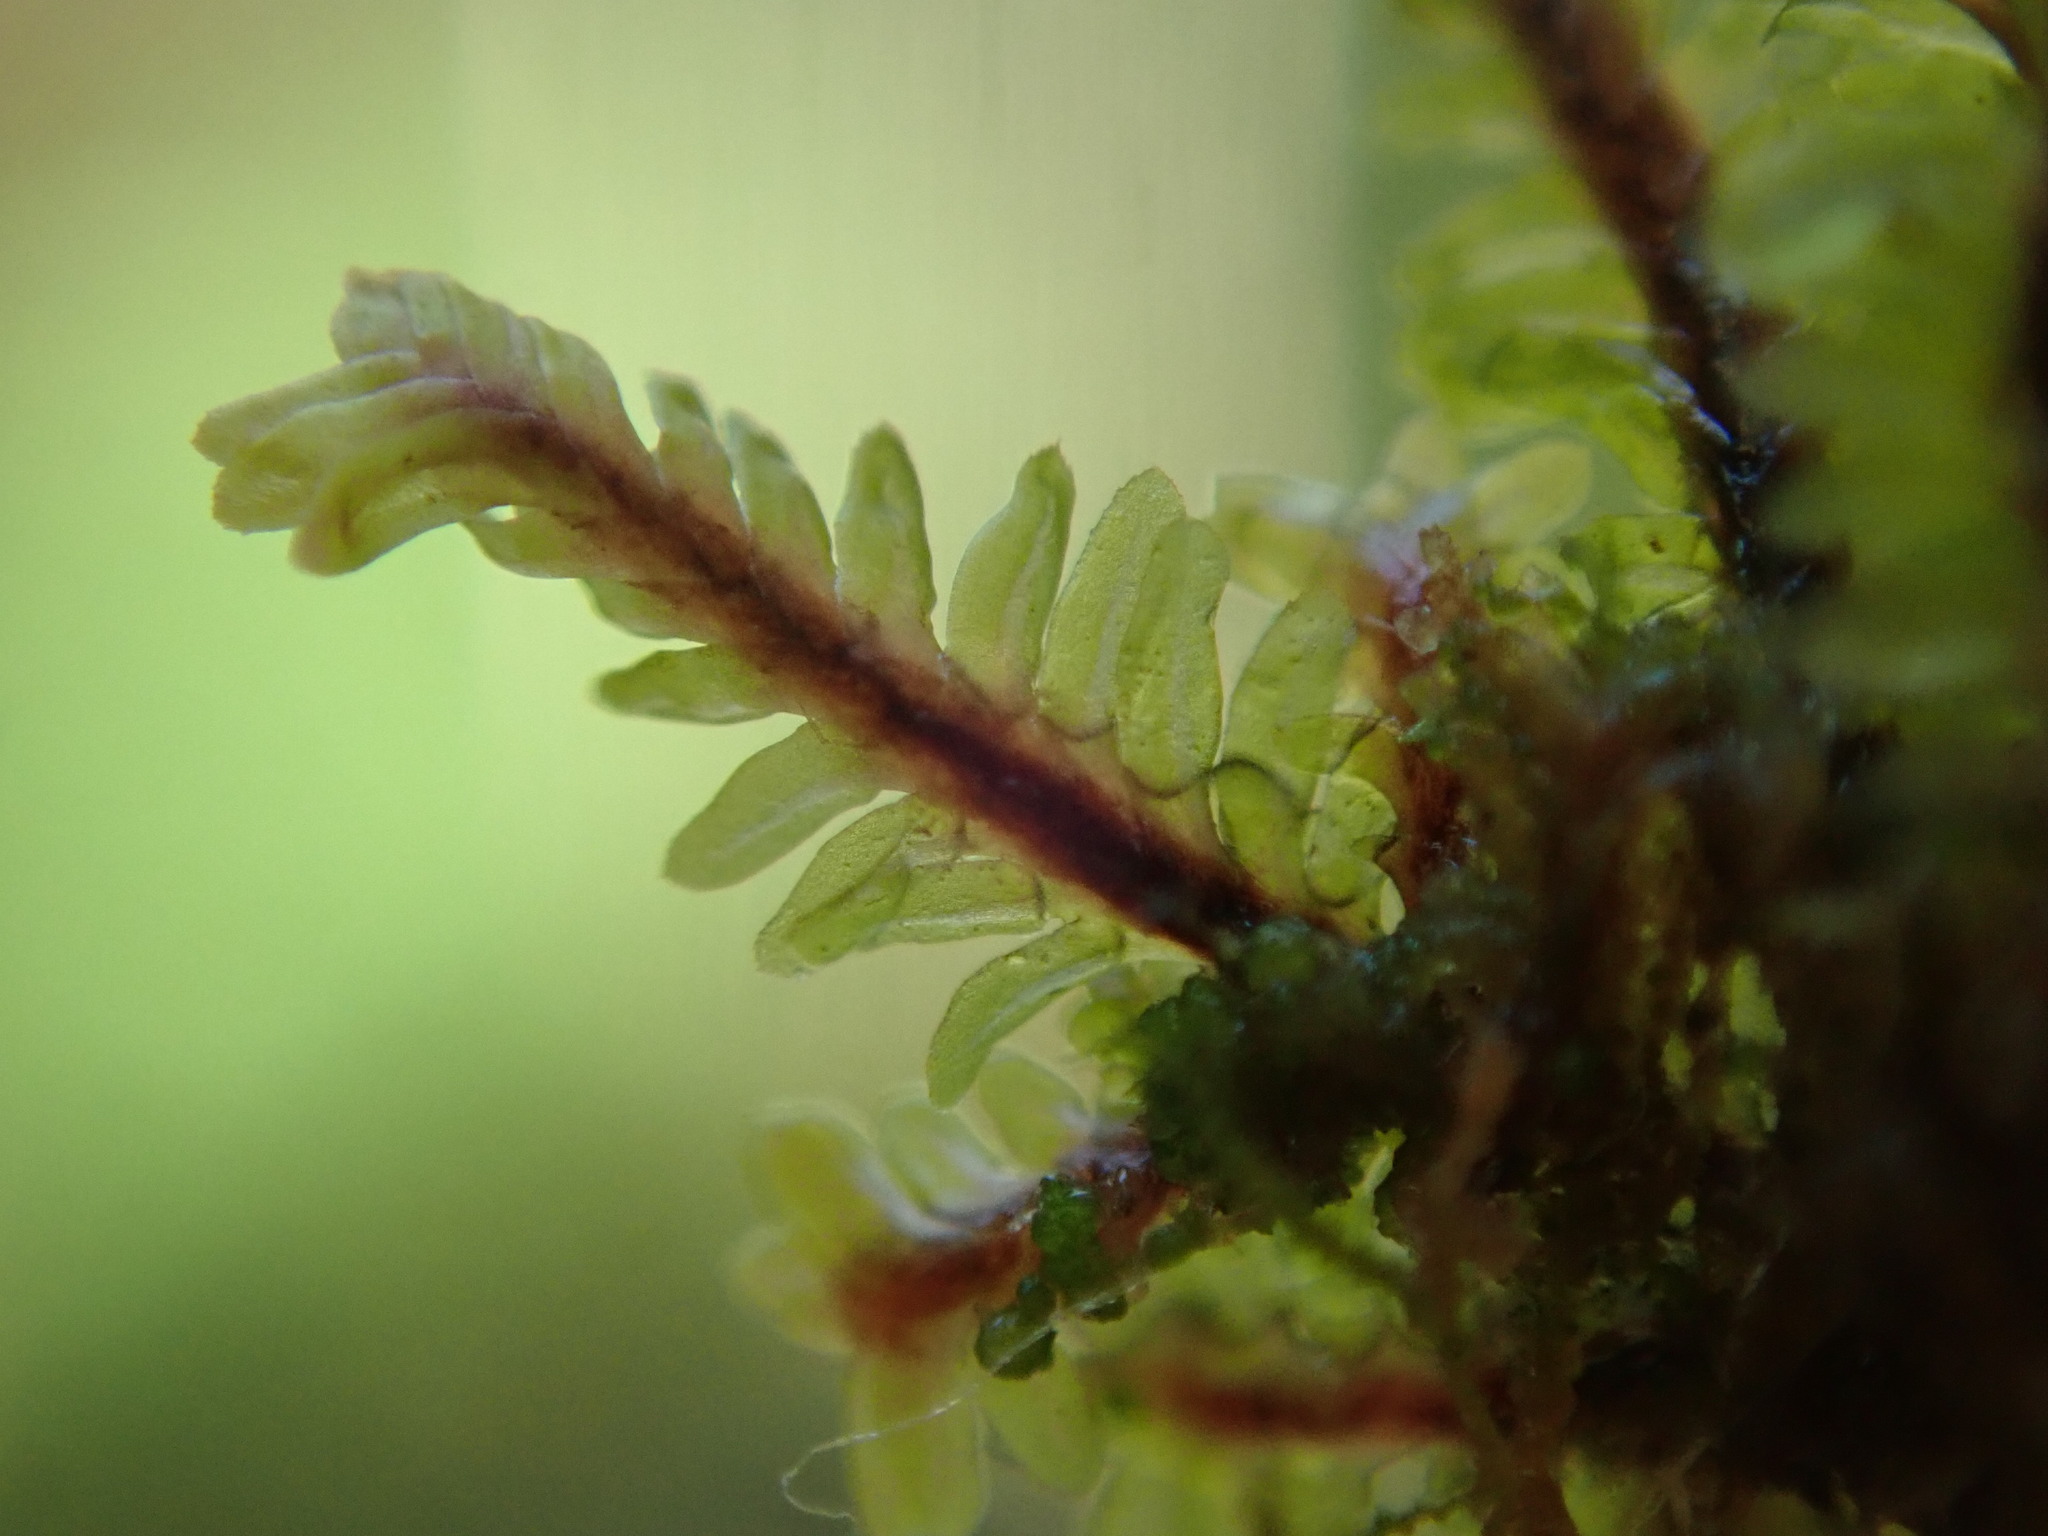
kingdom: Plantae
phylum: Marchantiophyta
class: Jungermanniopsida
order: Jungermanniales
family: Scapaniaceae
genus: Diplophyllum
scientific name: Diplophyllum albicans
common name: White earwort
